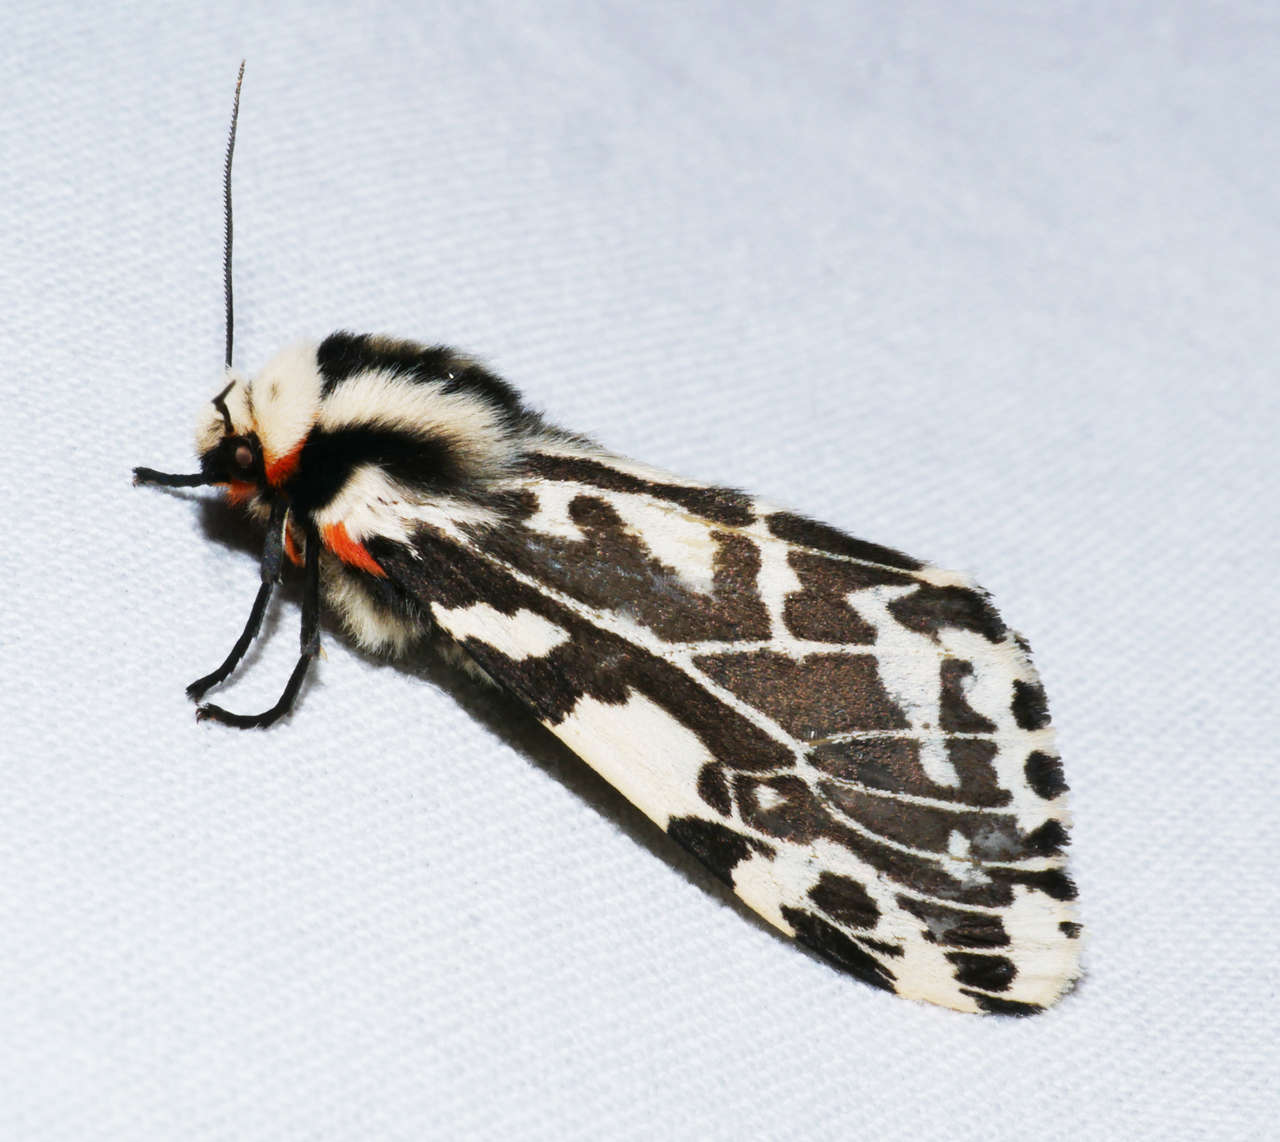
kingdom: Animalia
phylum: Arthropoda
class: Insecta
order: Lepidoptera
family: Erebidae
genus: Ardices
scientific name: Ardices glatignyi
